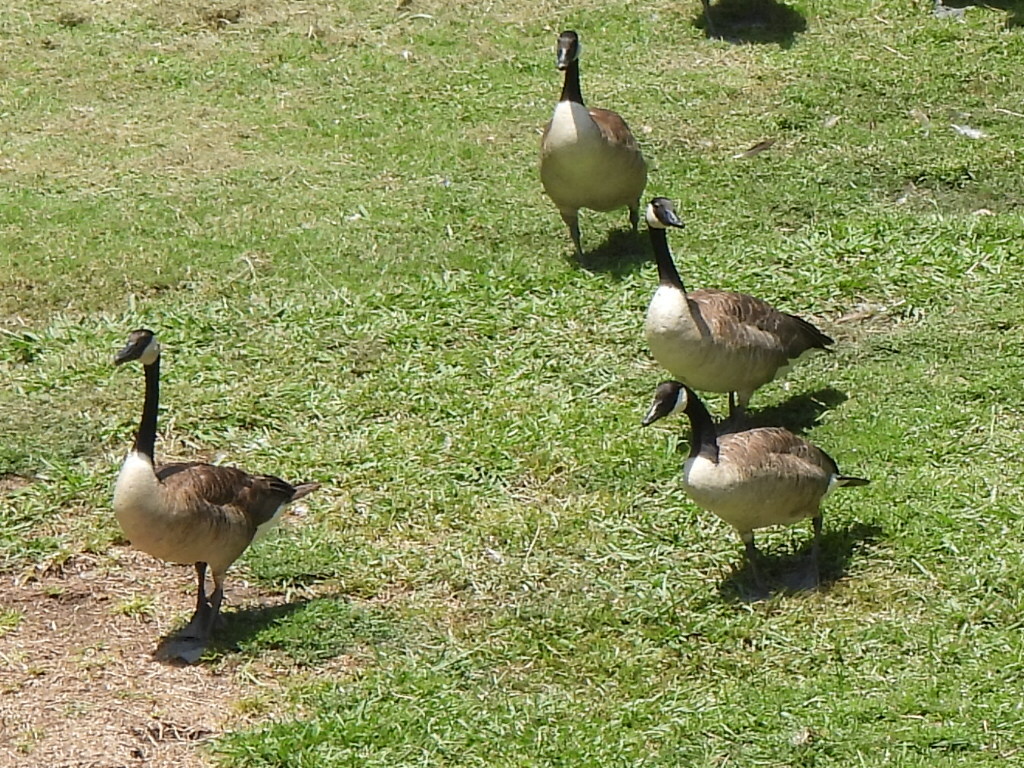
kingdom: Animalia
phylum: Chordata
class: Aves
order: Anseriformes
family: Anatidae
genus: Branta
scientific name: Branta canadensis
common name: Canada goose
